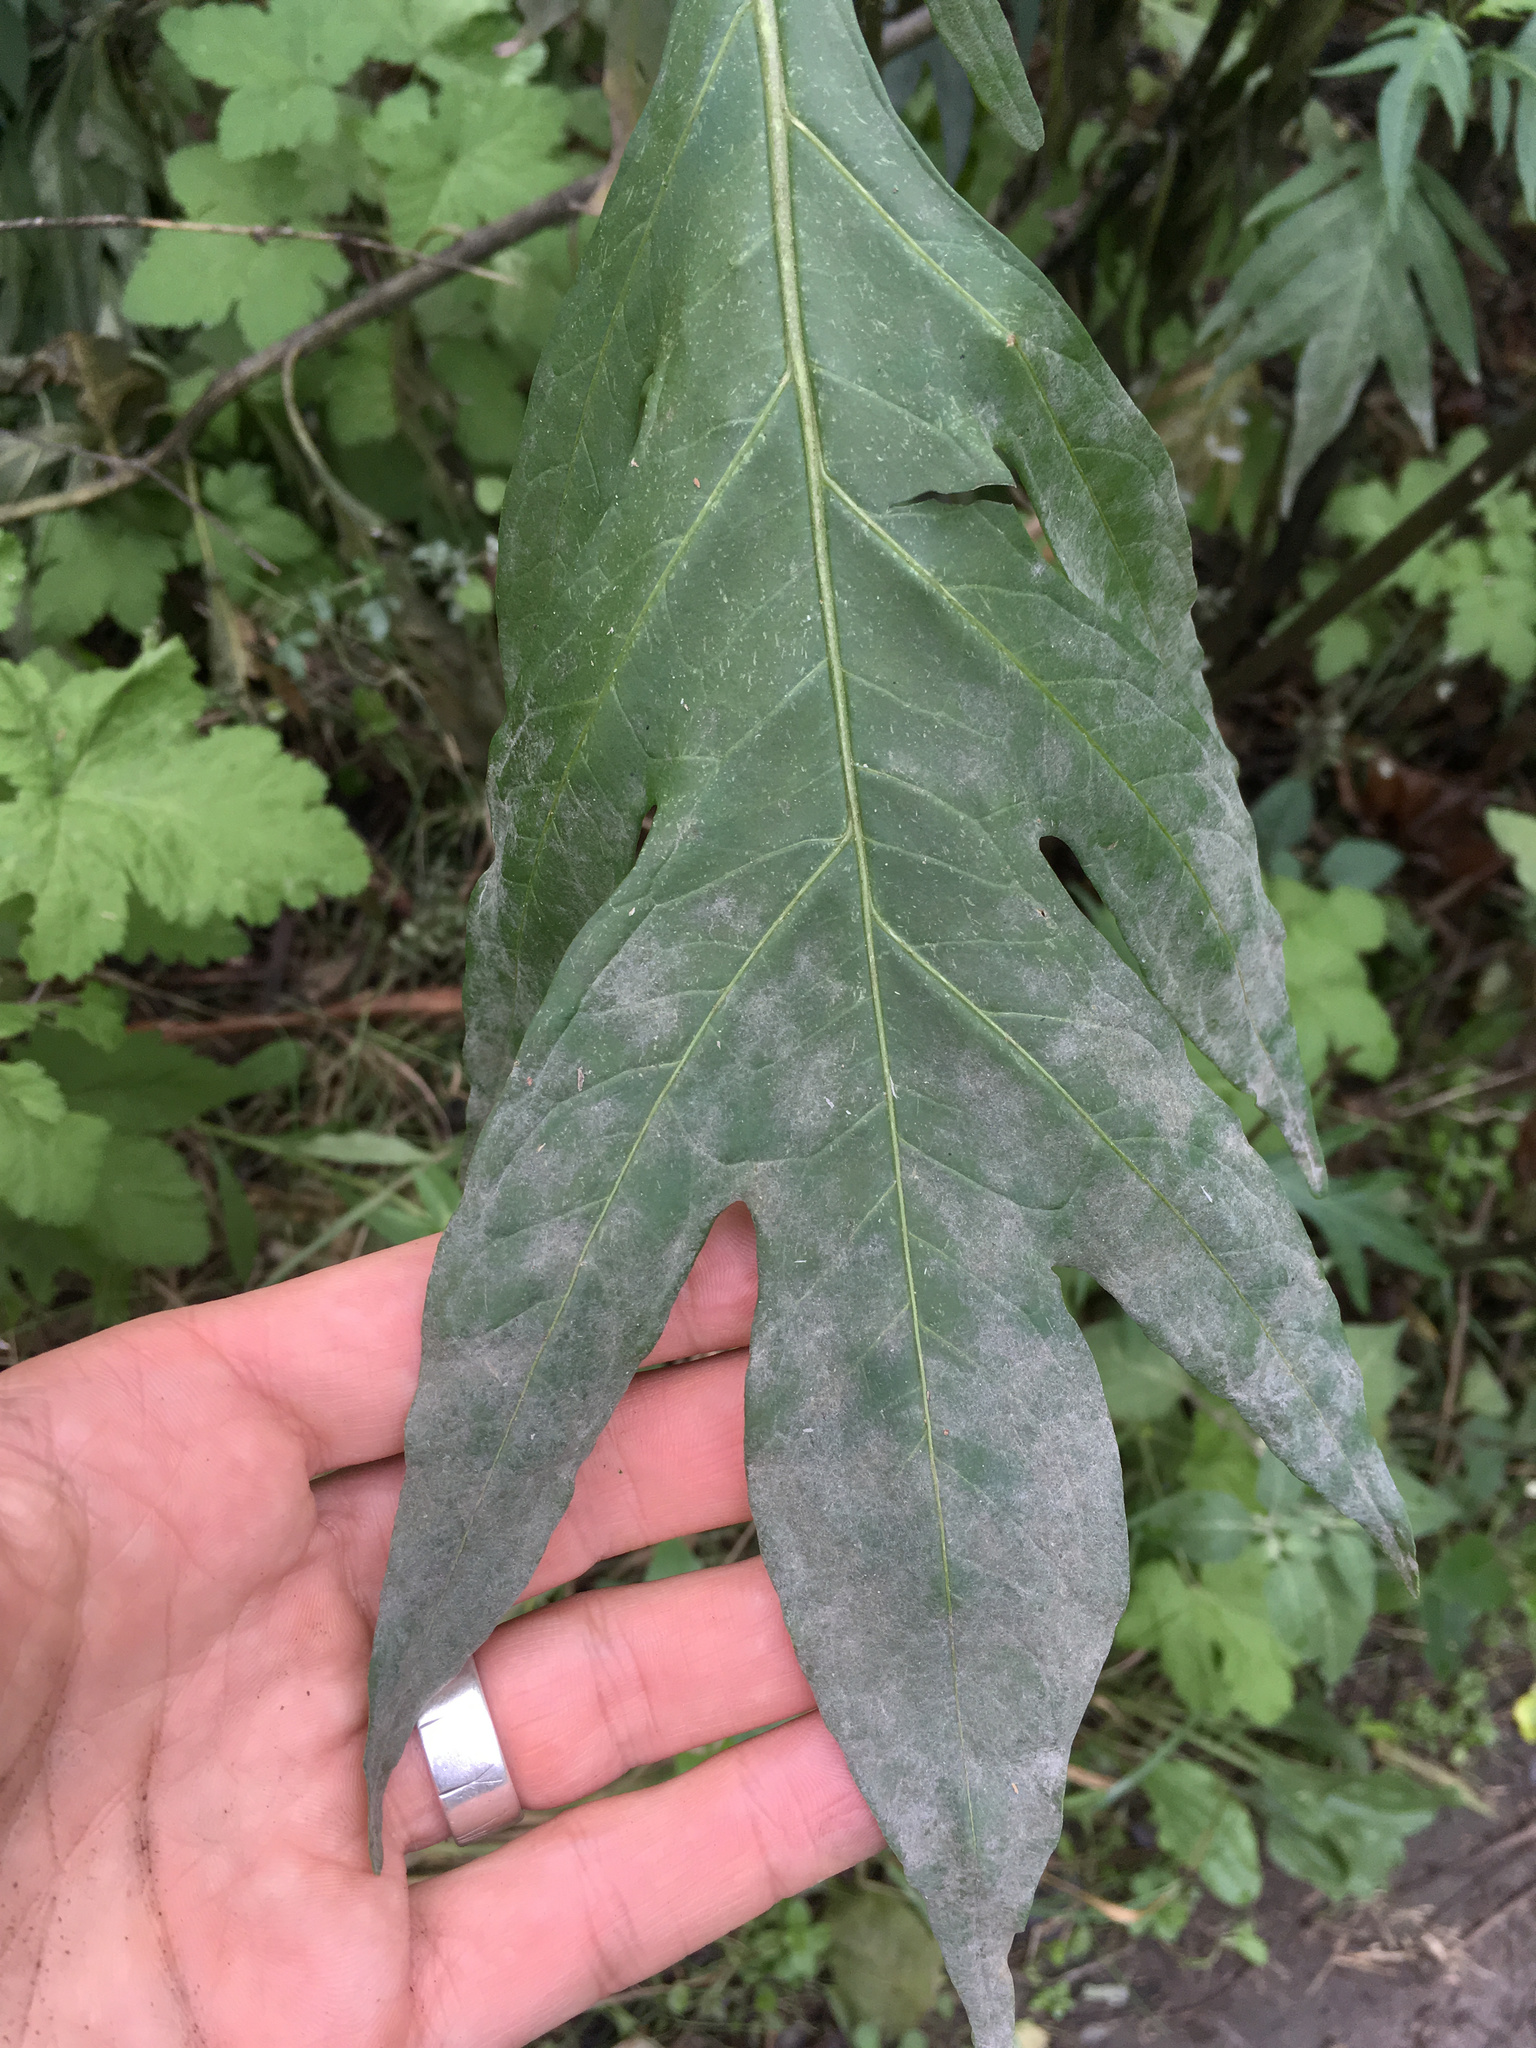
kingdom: Fungi
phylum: Ascomycota
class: Leotiomycetes
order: Helotiales
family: Erysiphaceae
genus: Golovinomyces
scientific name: Golovinomyces longipes
